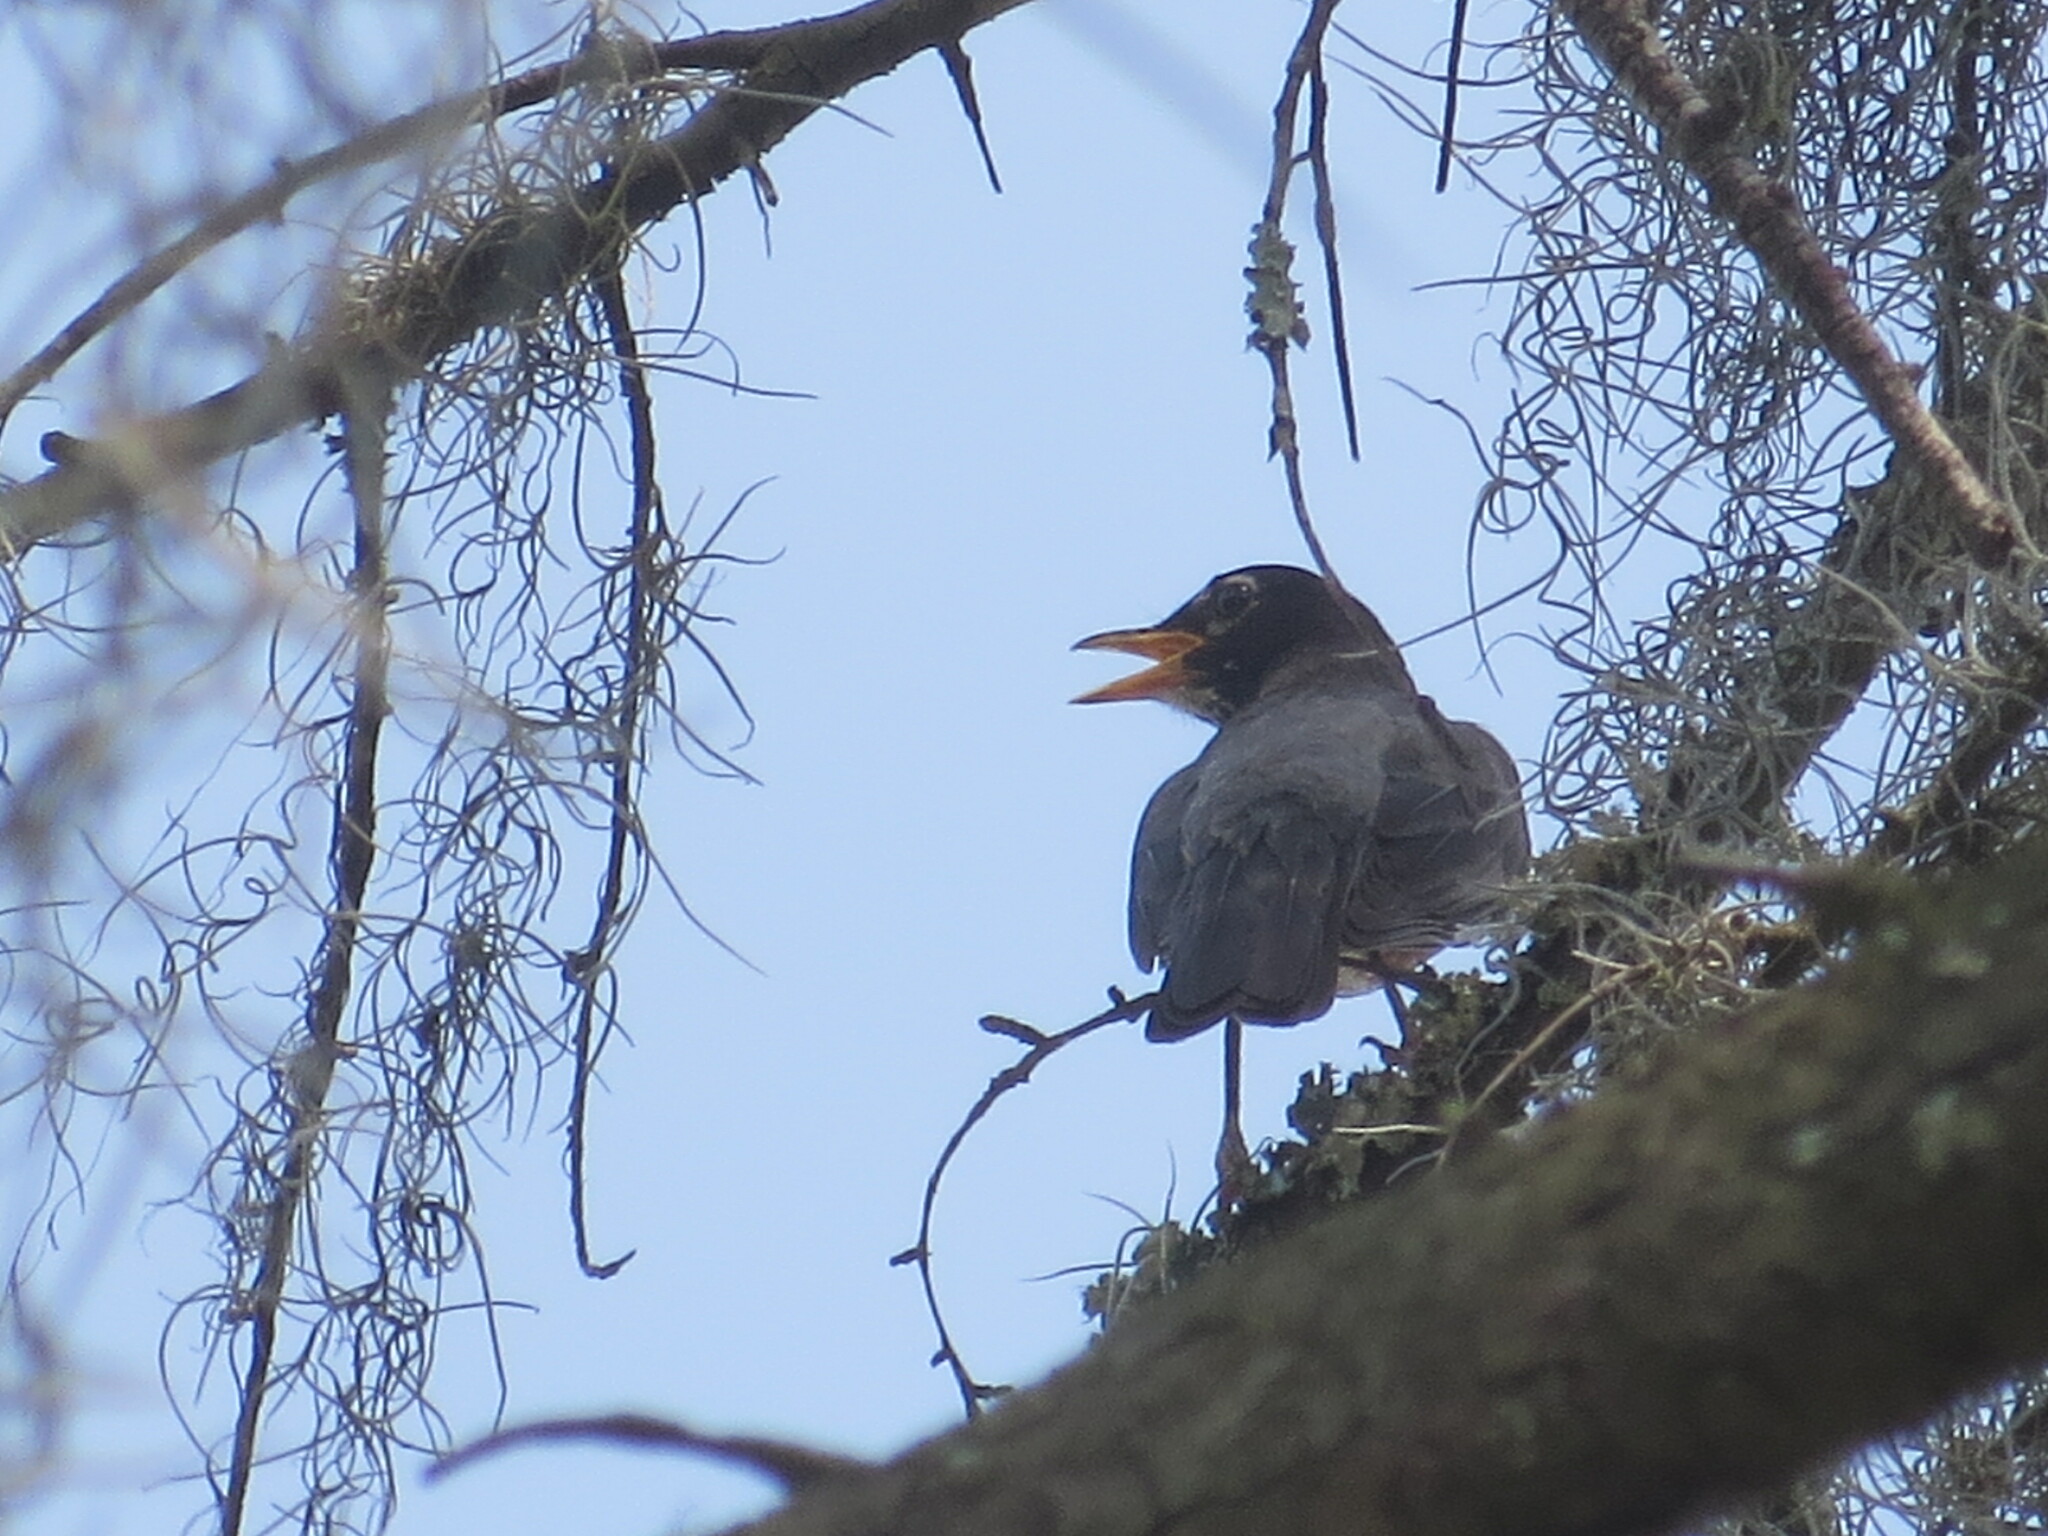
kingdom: Animalia
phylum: Chordata
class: Aves
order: Passeriformes
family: Turdidae
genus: Turdus
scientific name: Turdus migratorius
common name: American robin
